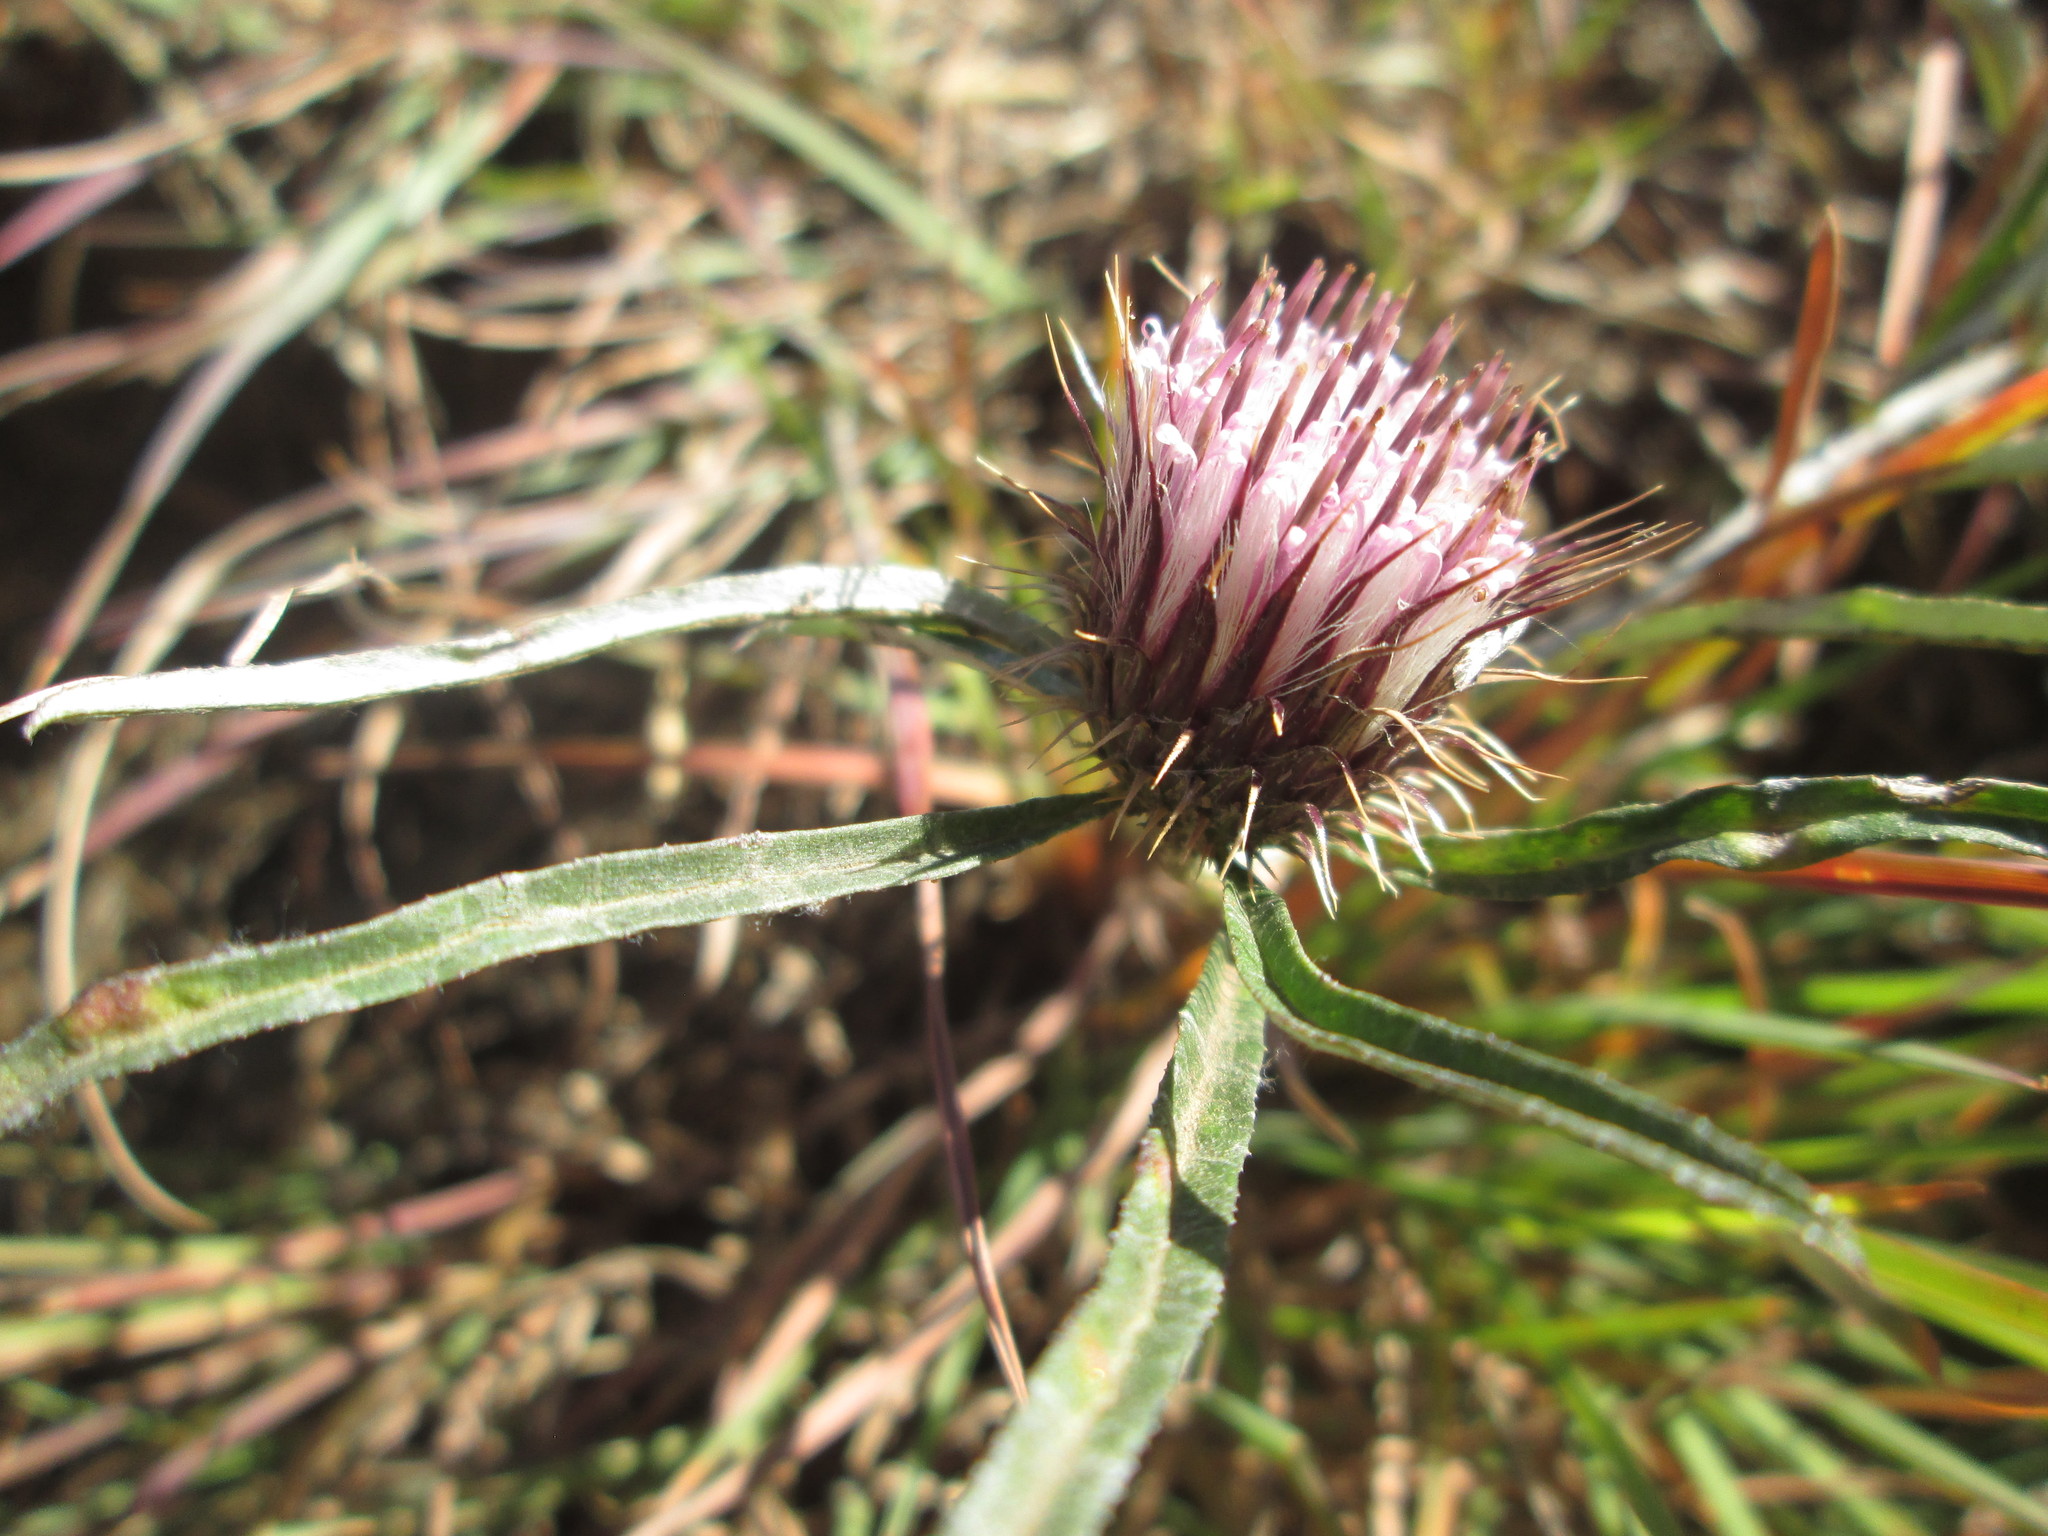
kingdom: Plantae
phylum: Tracheophyta
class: Magnoliopsida
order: Asterales
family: Asteraceae
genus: Dicoma
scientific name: Dicoma anomala
